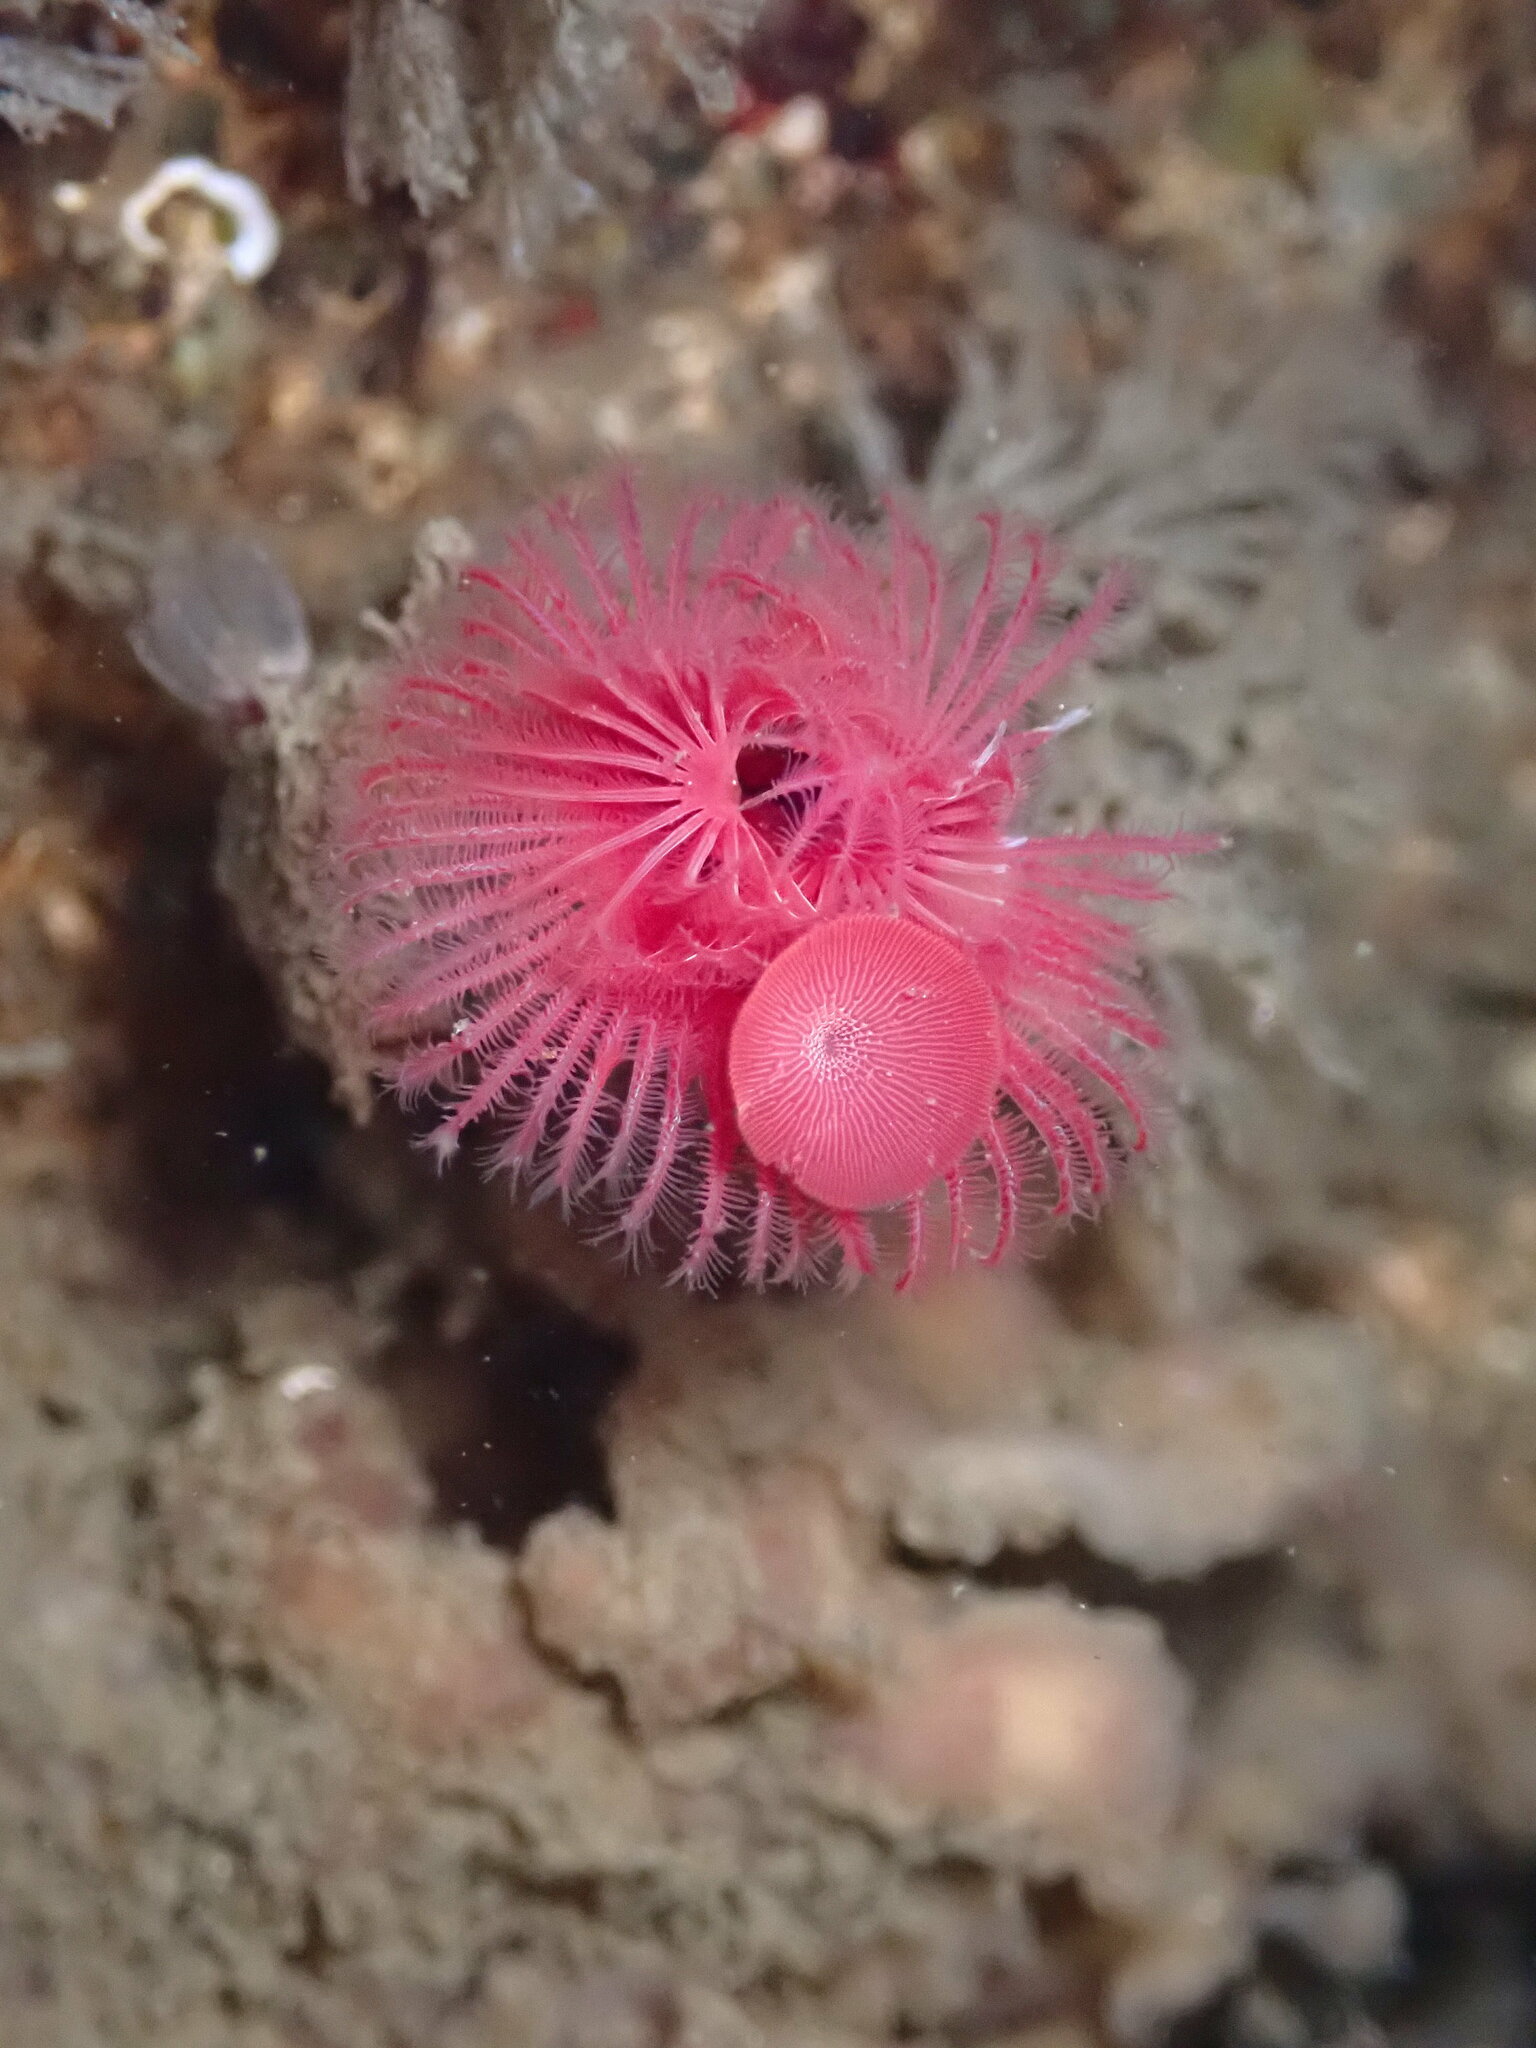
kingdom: Animalia
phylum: Annelida
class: Polychaeta
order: Sabellida
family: Serpulidae
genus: Serpula
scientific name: Serpula columbiana
